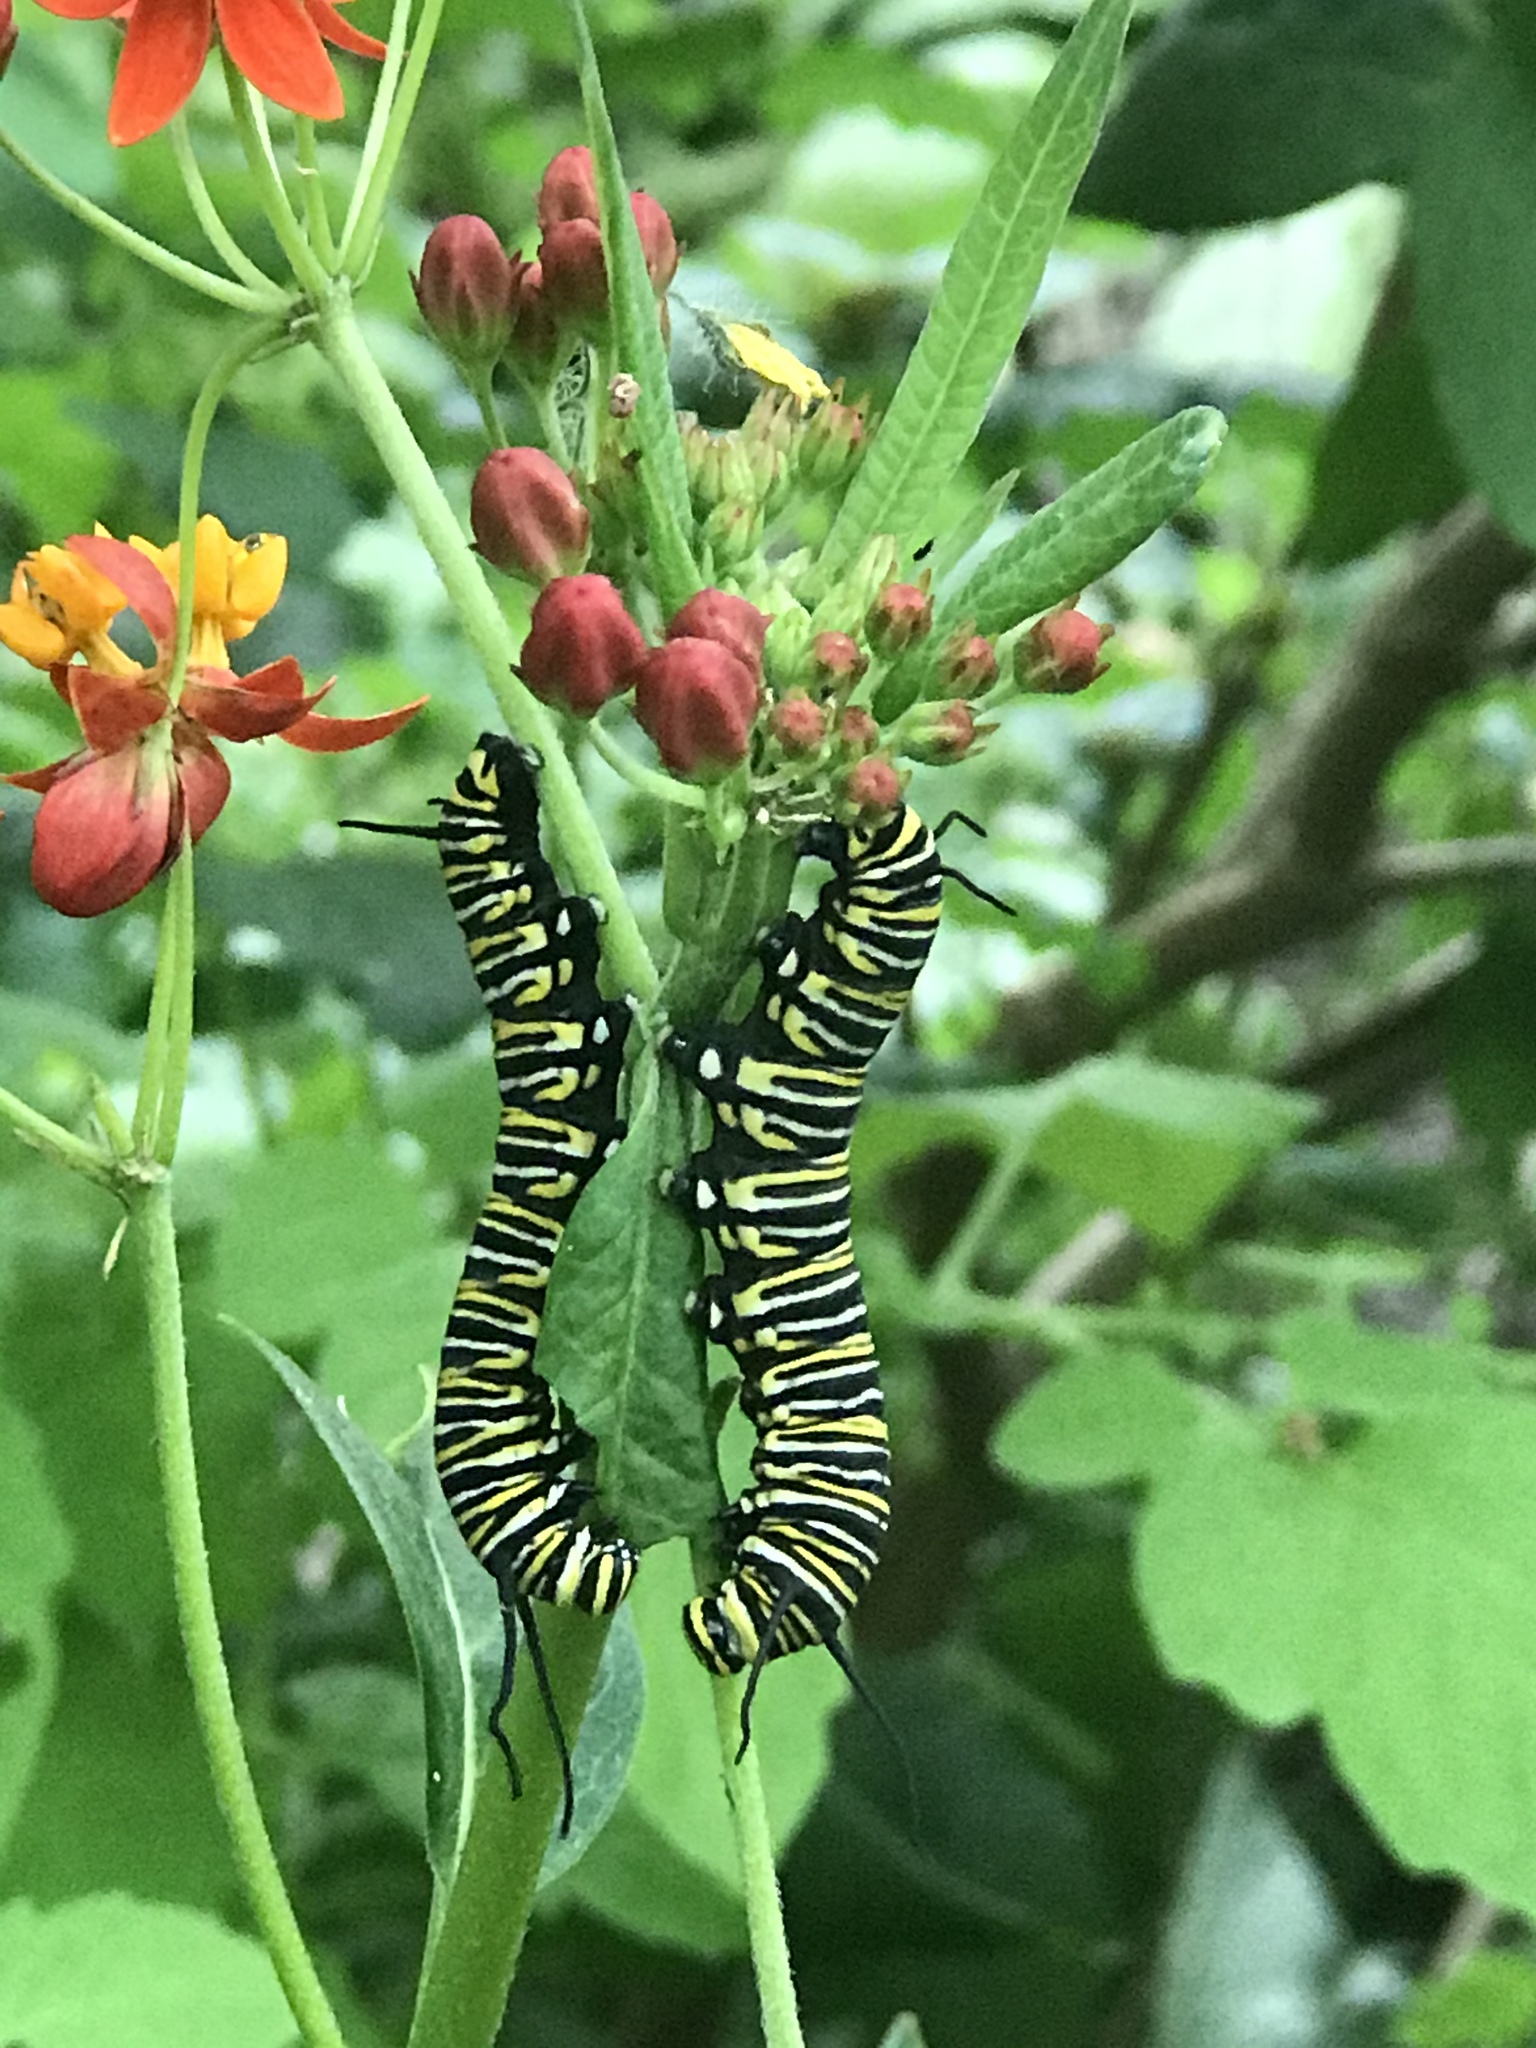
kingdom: Animalia
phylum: Arthropoda
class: Insecta
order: Lepidoptera
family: Nymphalidae
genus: Danaus
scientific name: Danaus plexippus
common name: Monarch
